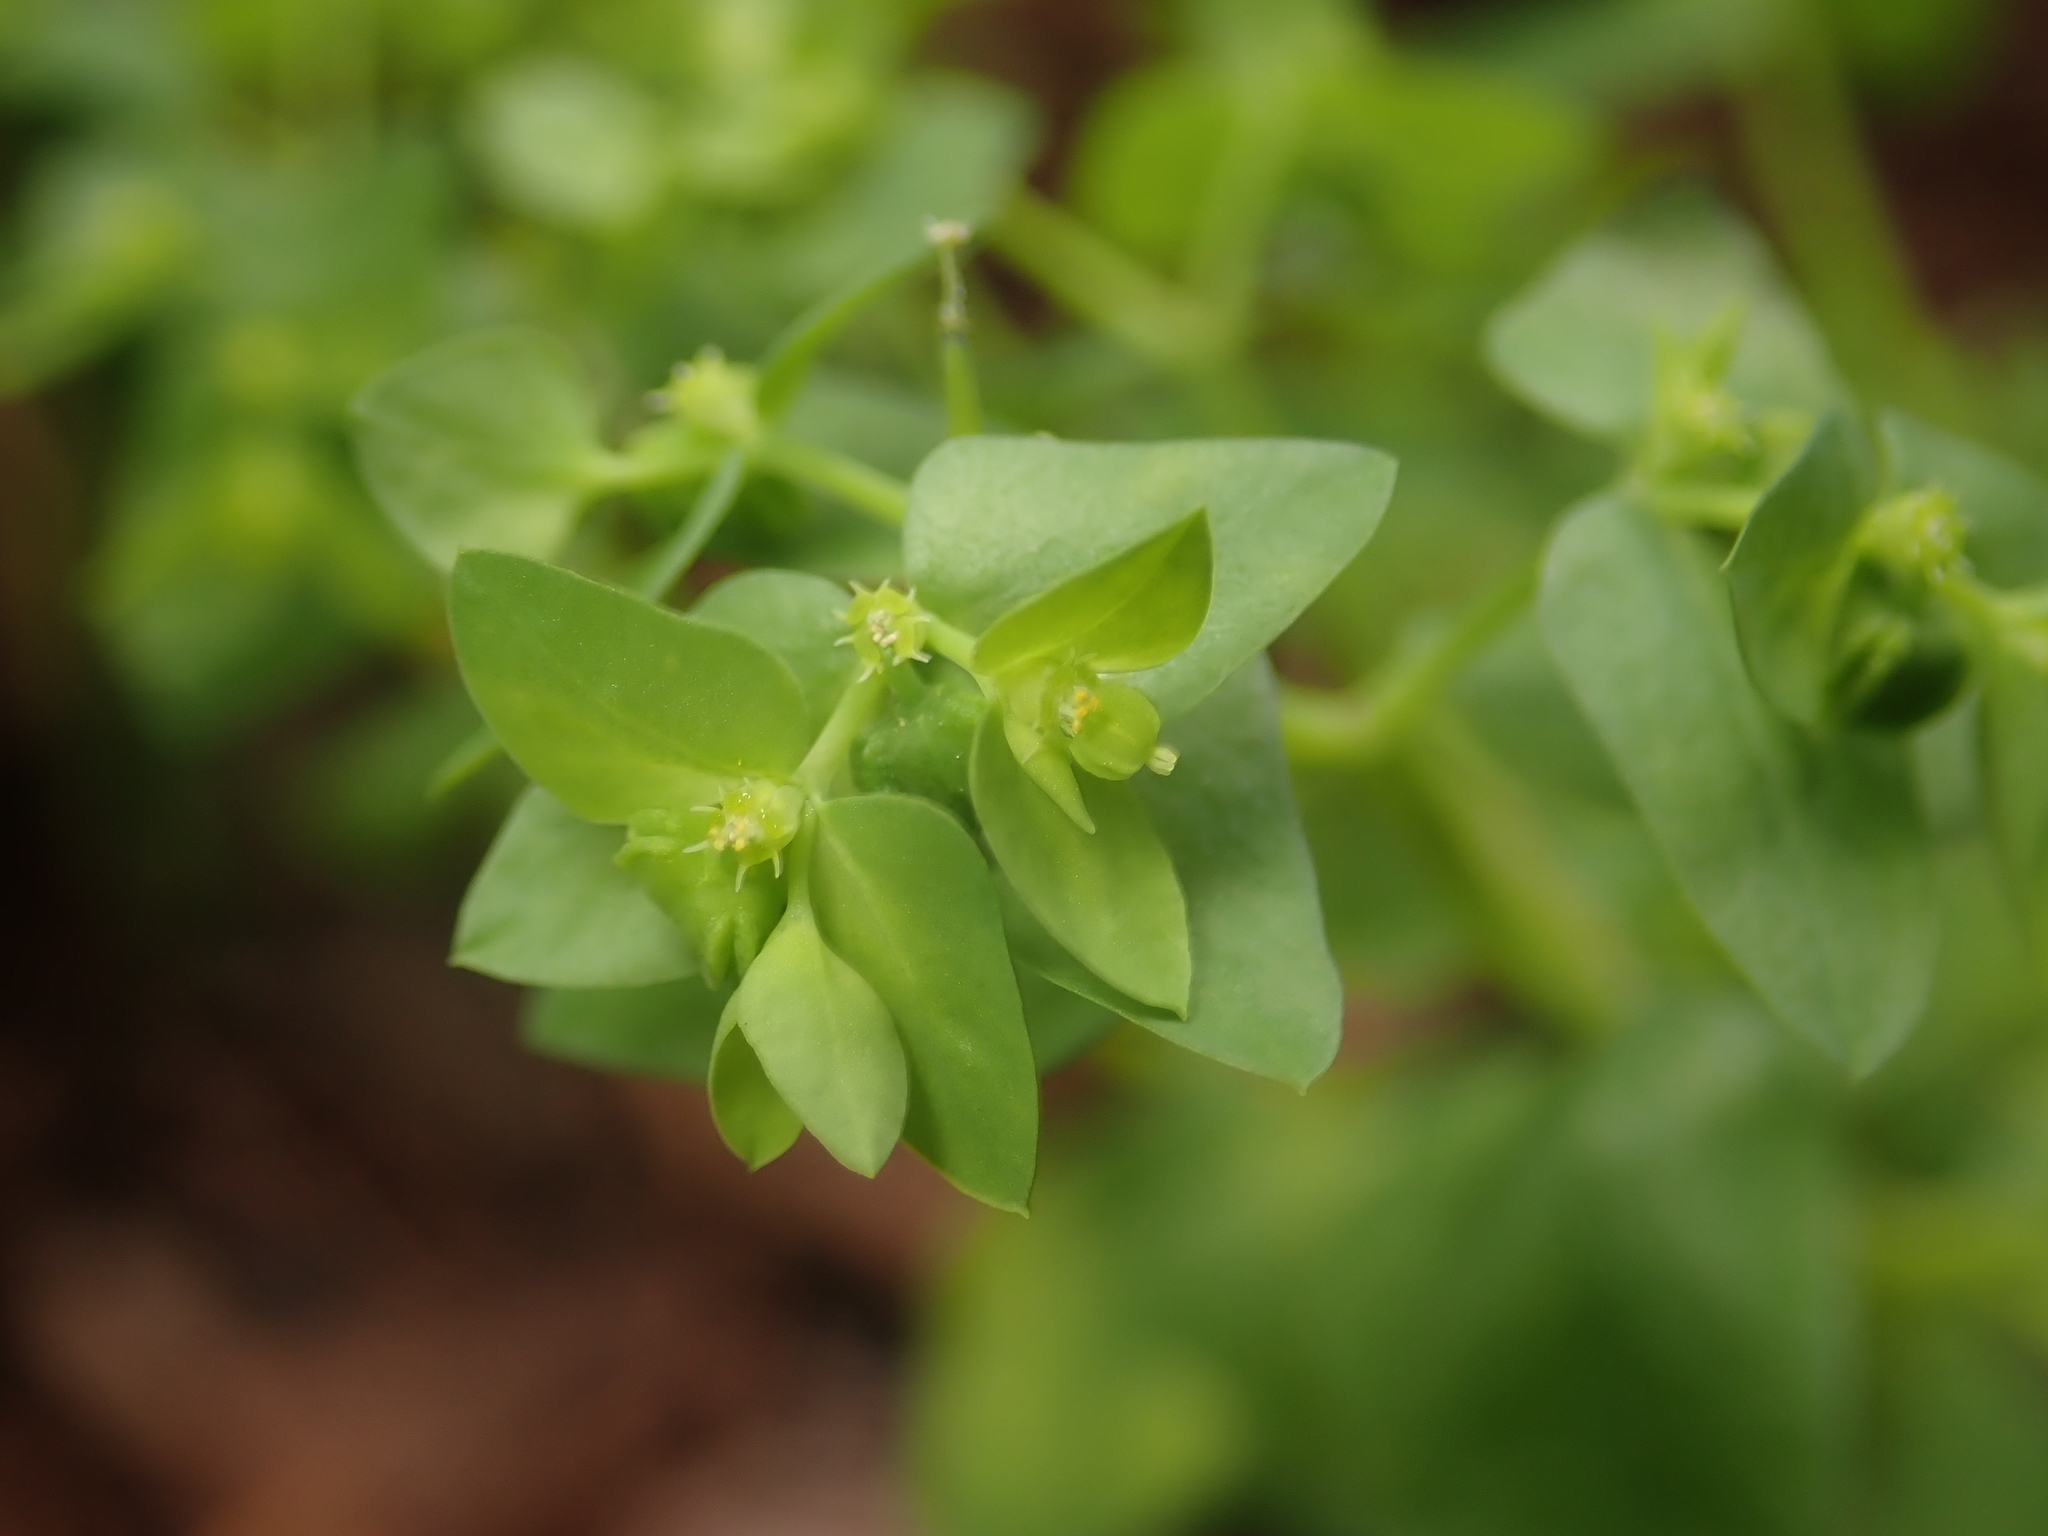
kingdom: Plantae
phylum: Tracheophyta
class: Magnoliopsida
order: Malpighiales
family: Euphorbiaceae
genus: Euphorbia
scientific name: Euphorbia peplus
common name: Petty spurge
